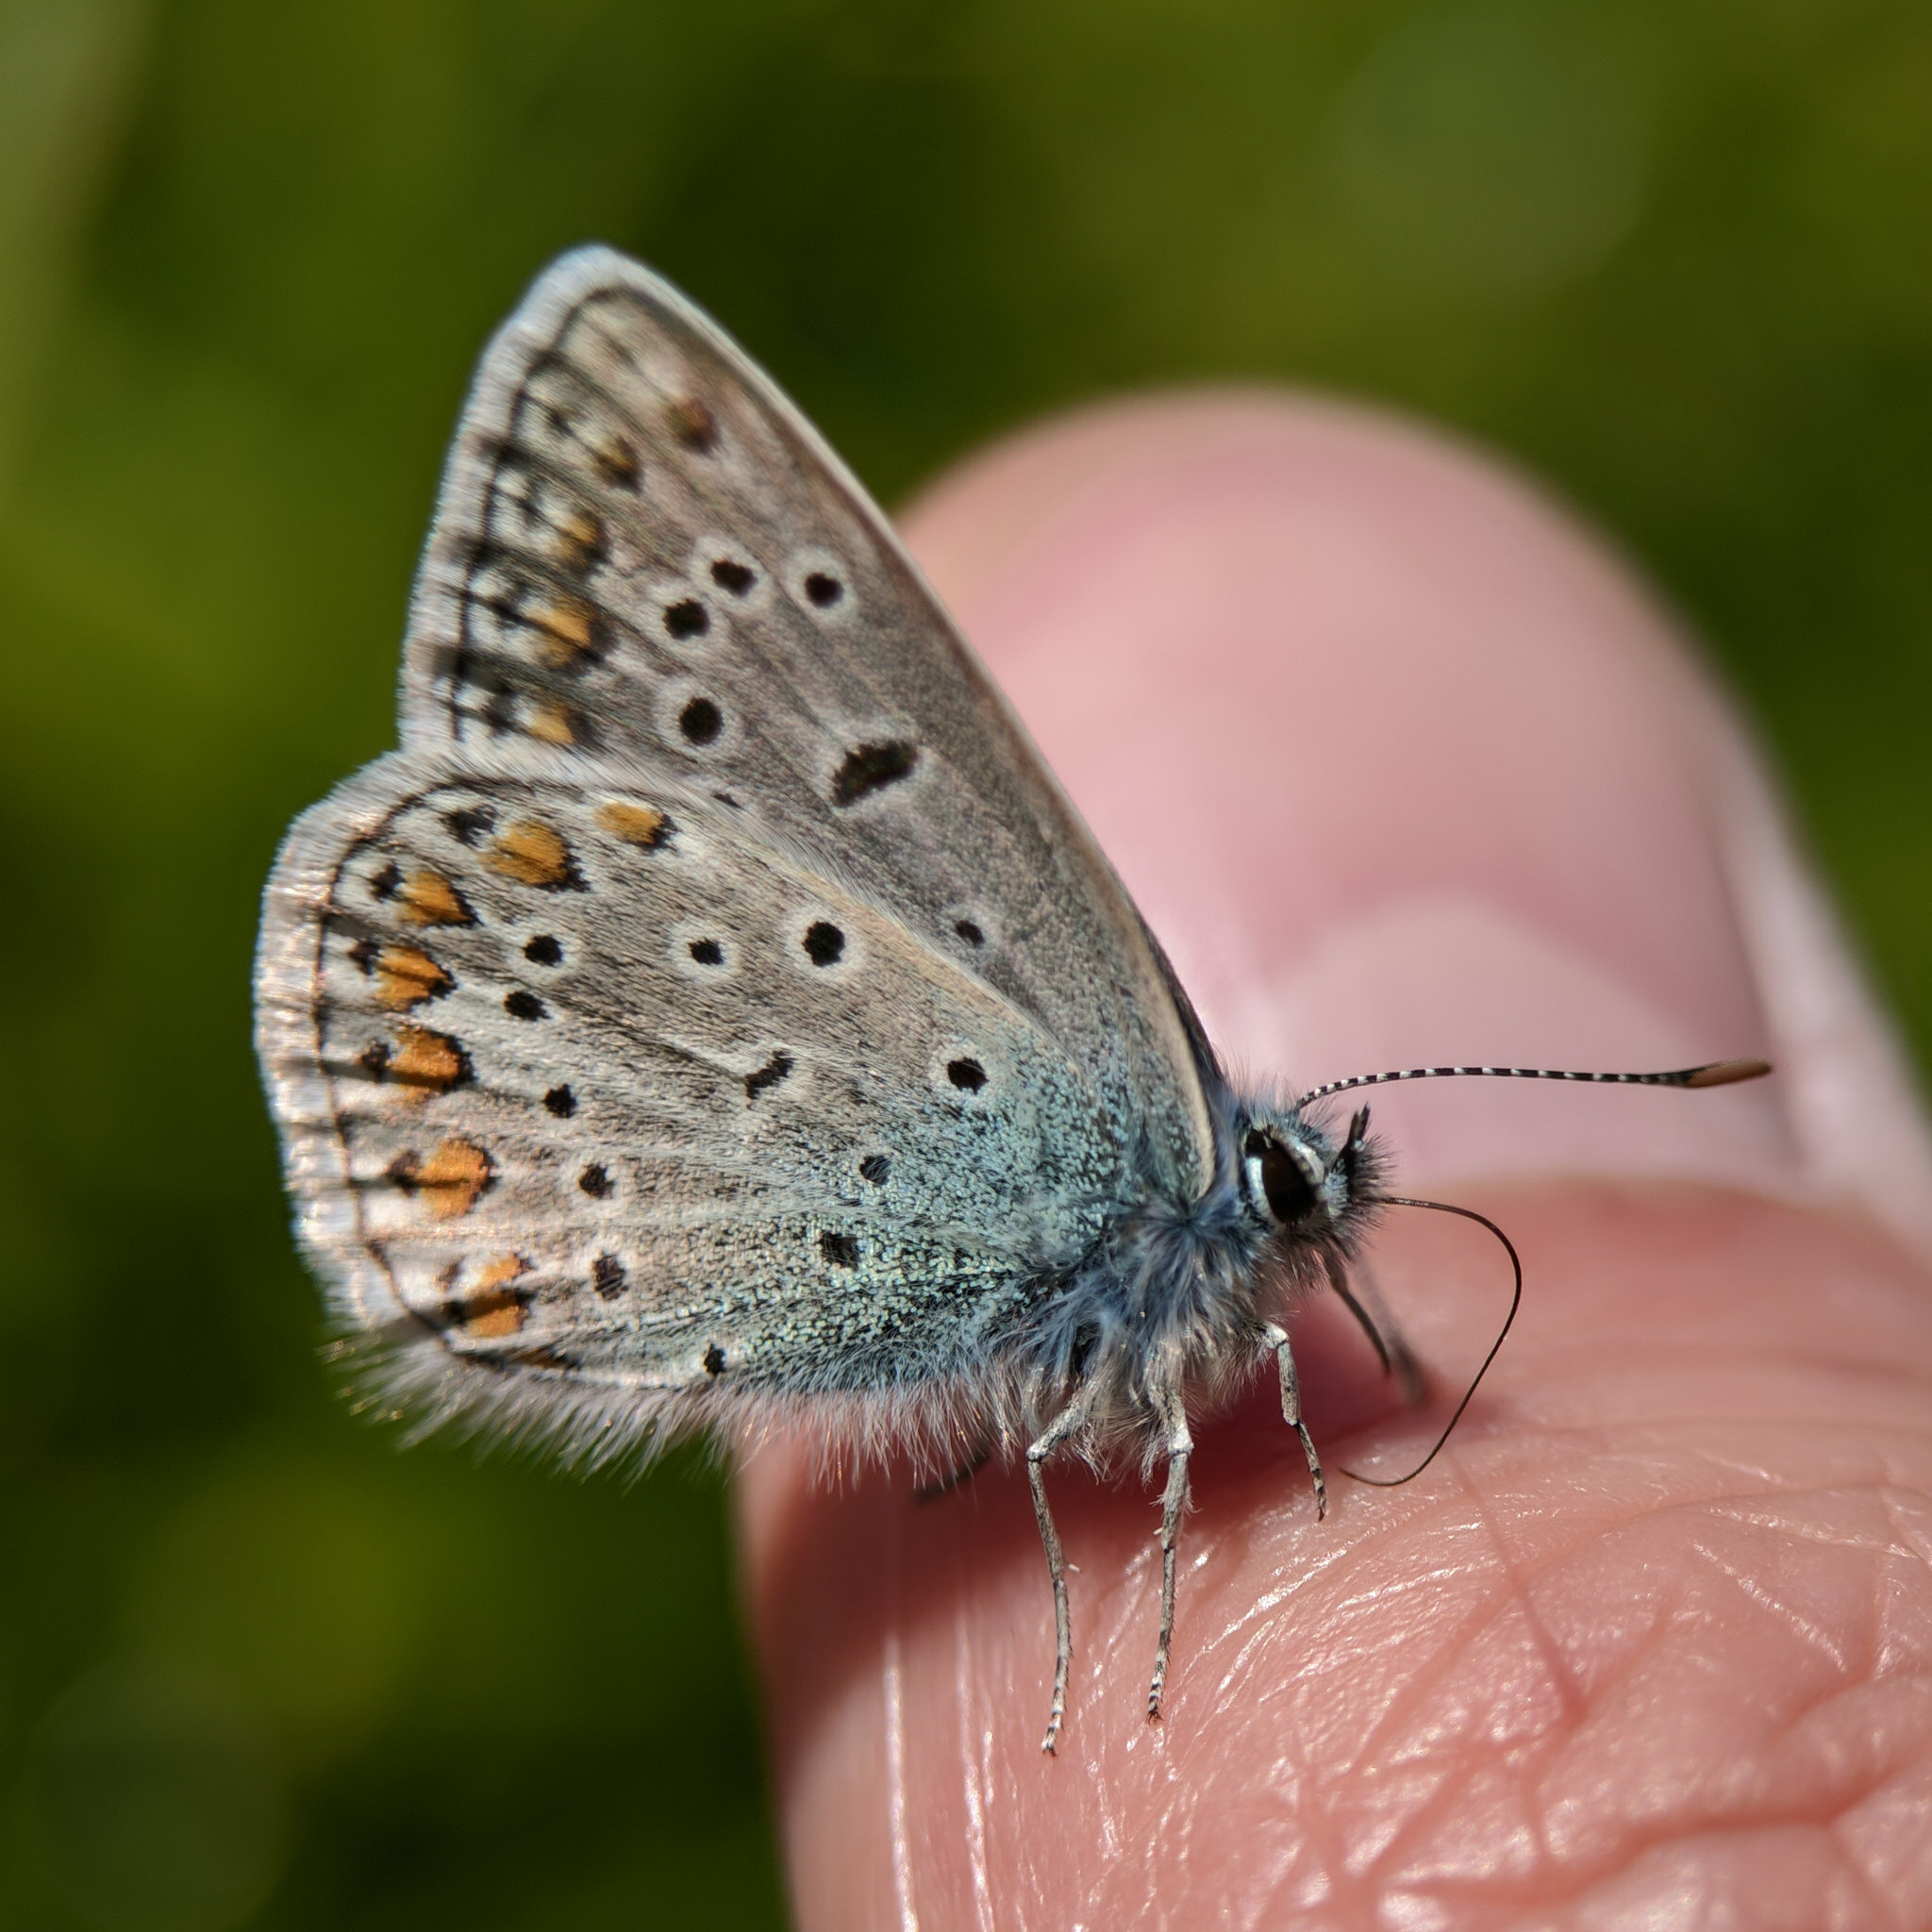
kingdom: Animalia
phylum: Arthropoda
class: Insecta
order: Lepidoptera
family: Lycaenidae
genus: Polyommatus
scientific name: Polyommatus icarus
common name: Common blue
